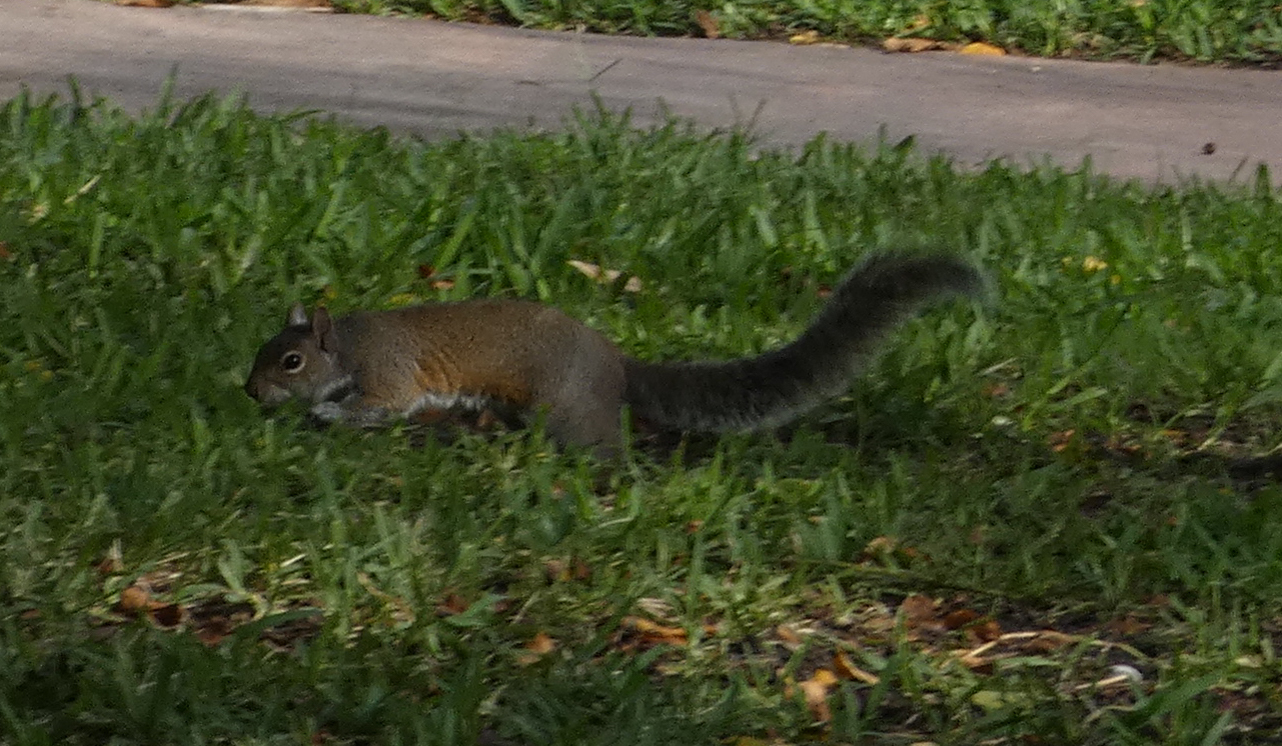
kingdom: Animalia
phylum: Chordata
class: Mammalia
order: Rodentia
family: Sciuridae
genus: Sciurus
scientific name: Sciurus carolinensis
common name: Eastern gray squirrel
